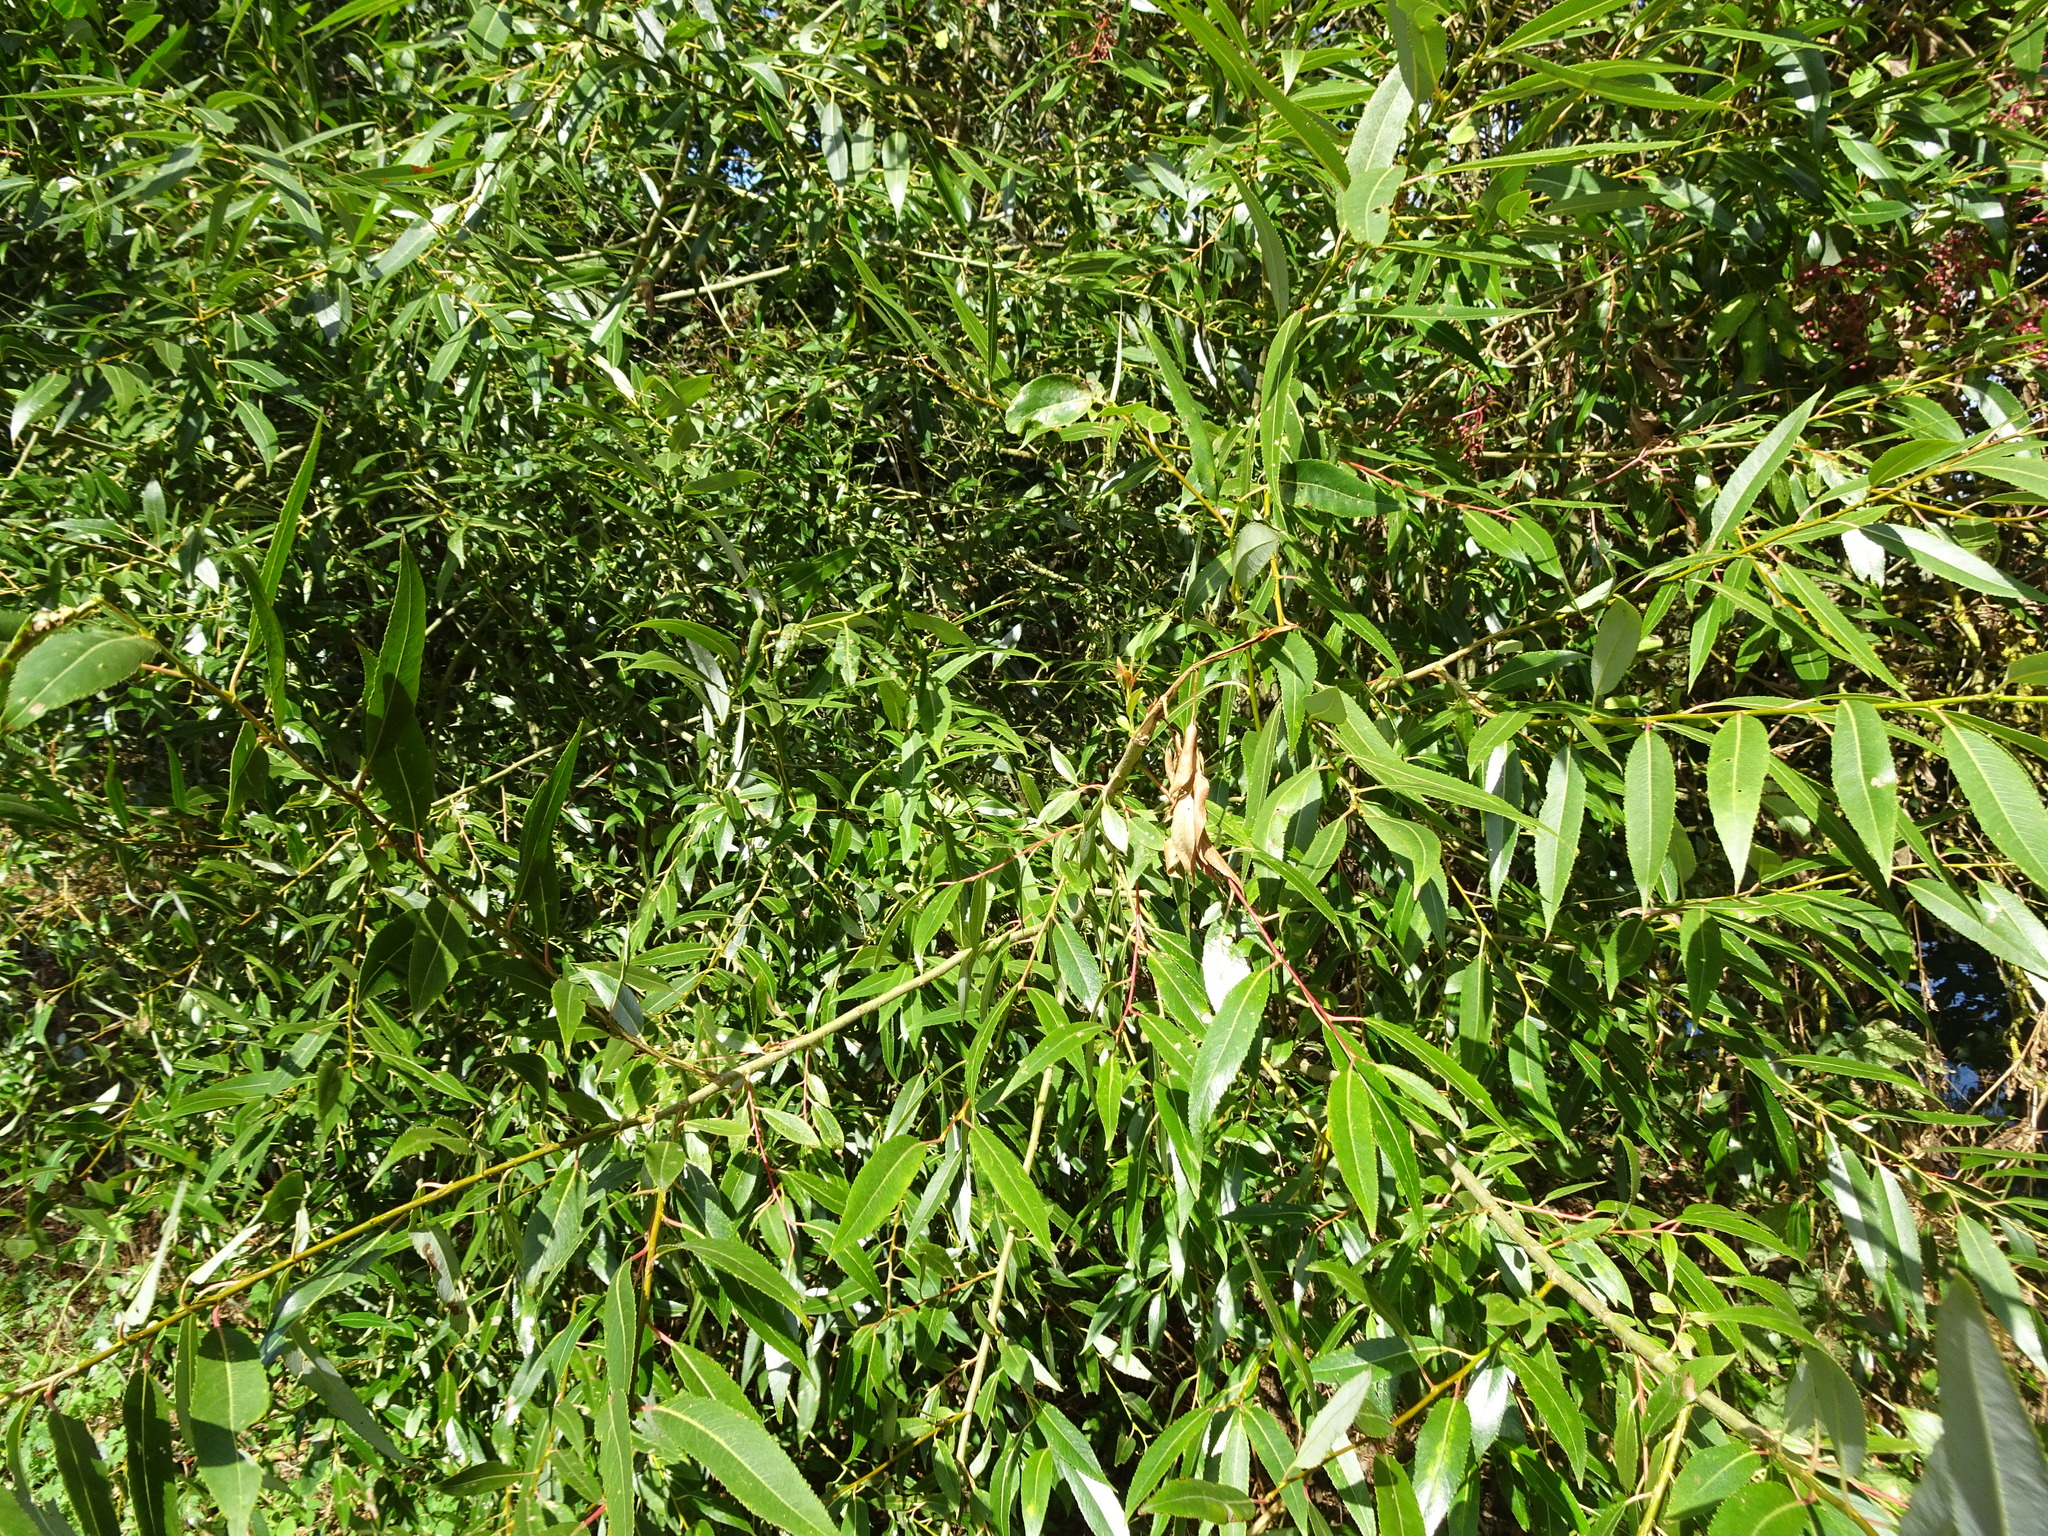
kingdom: Plantae
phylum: Tracheophyta
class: Magnoliopsida
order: Malpighiales
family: Salicaceae
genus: Salix
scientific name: Salix fragilis
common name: Crack willow
